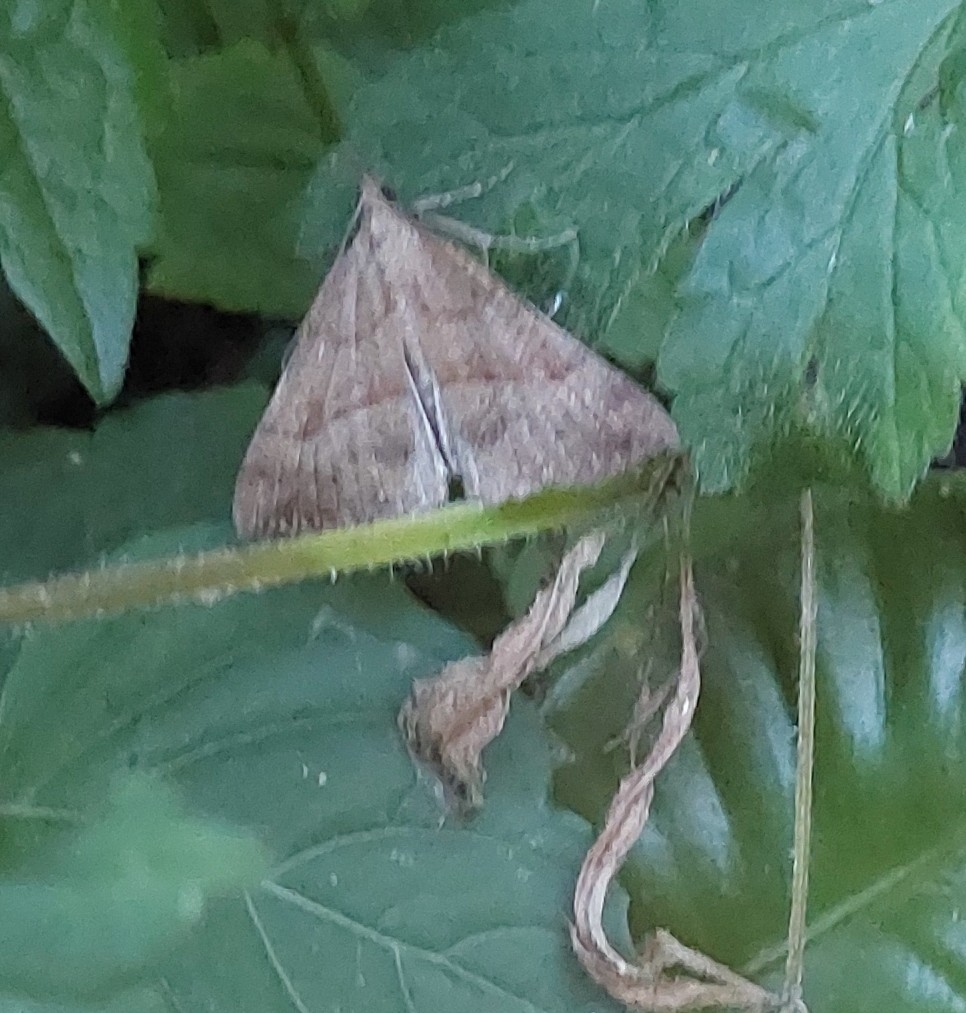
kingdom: Animalia
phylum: Arthropoda
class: Insecta
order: Lepidoptera
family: Erebidae
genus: Hypena
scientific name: Hypena proboscidalis
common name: Snout
